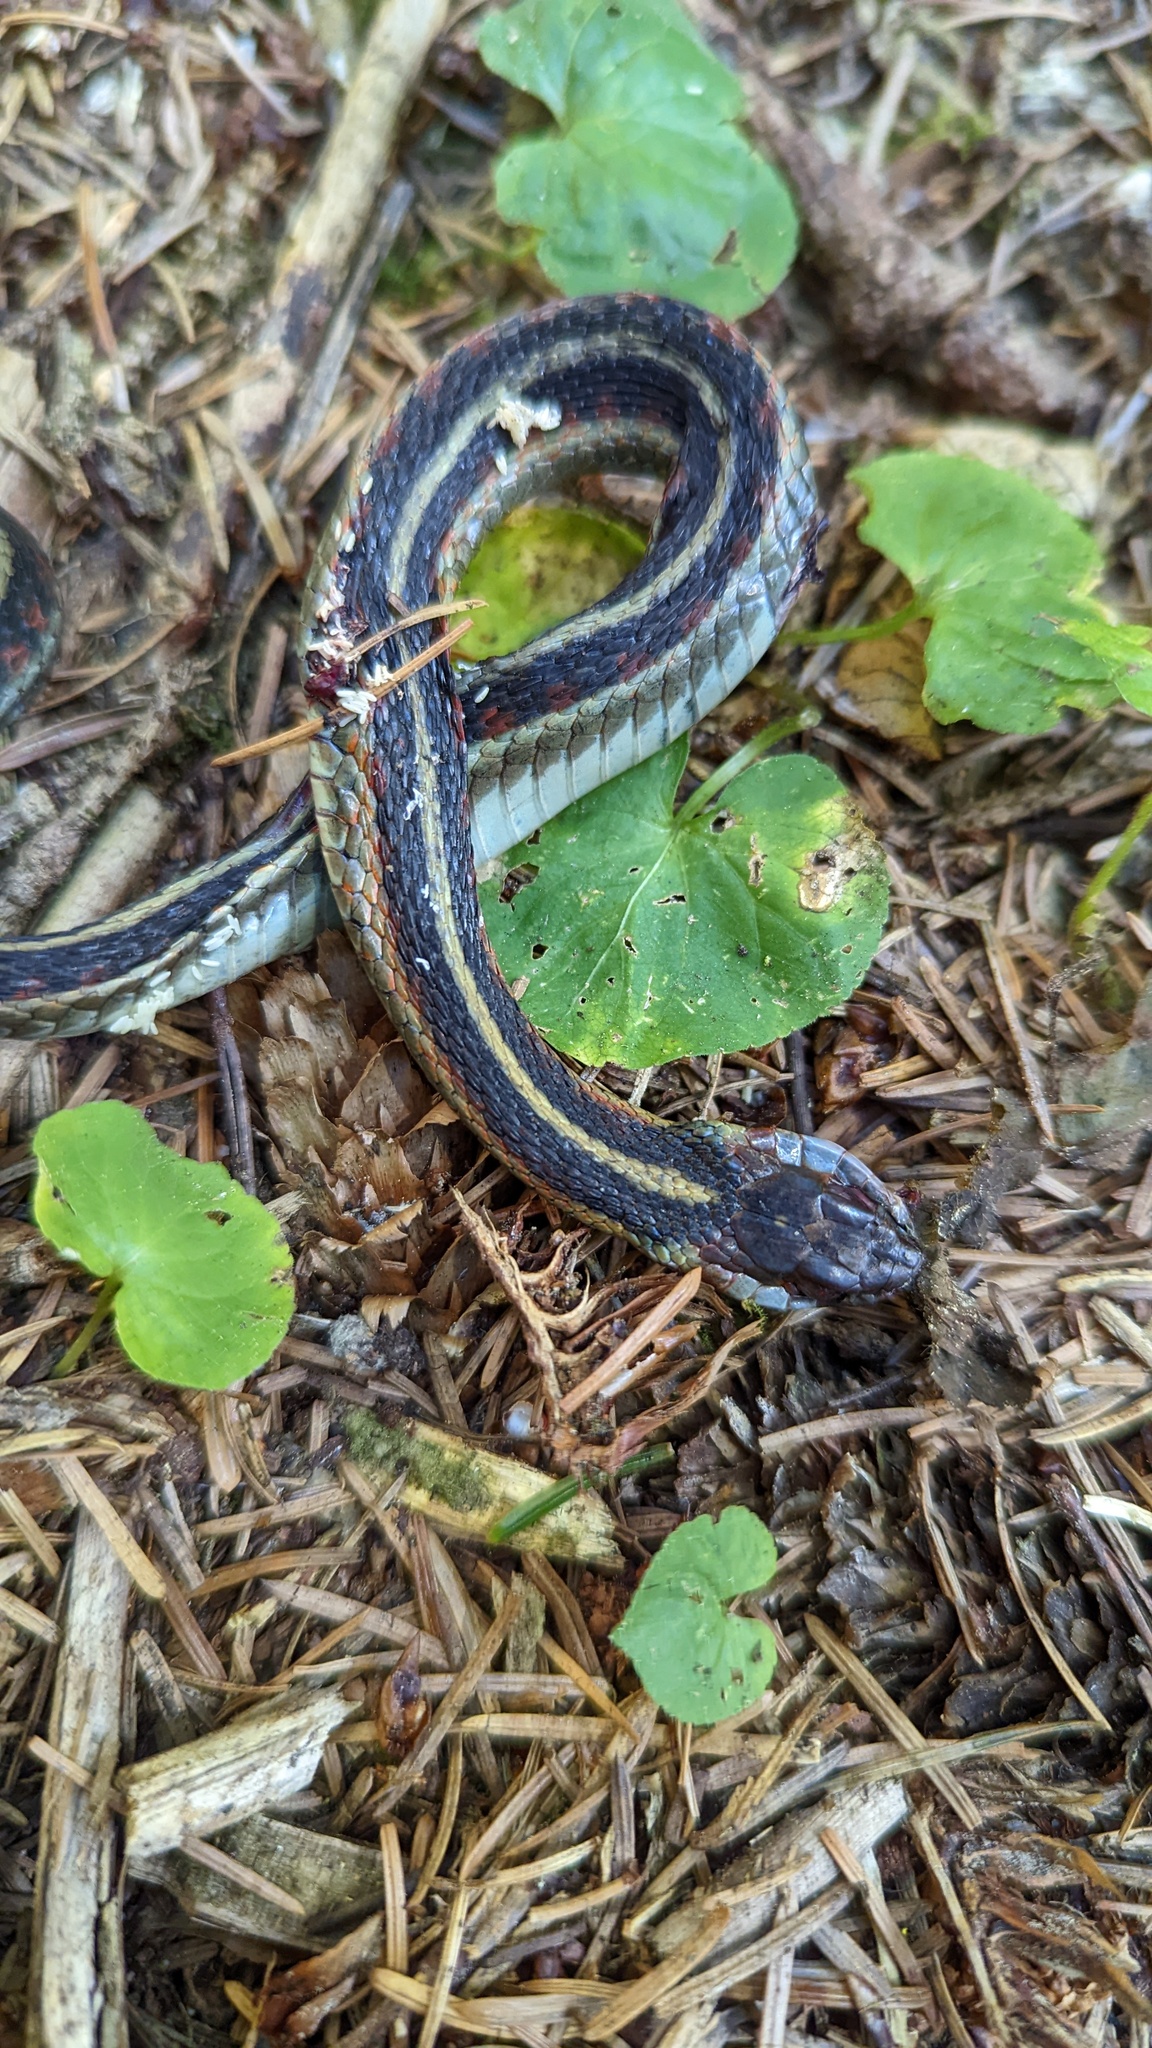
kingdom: Animalia
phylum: Chordata
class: Squamata
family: Colubridae
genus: Thamnophis
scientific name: Thamnophis sirtalis
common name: Common garter snake
